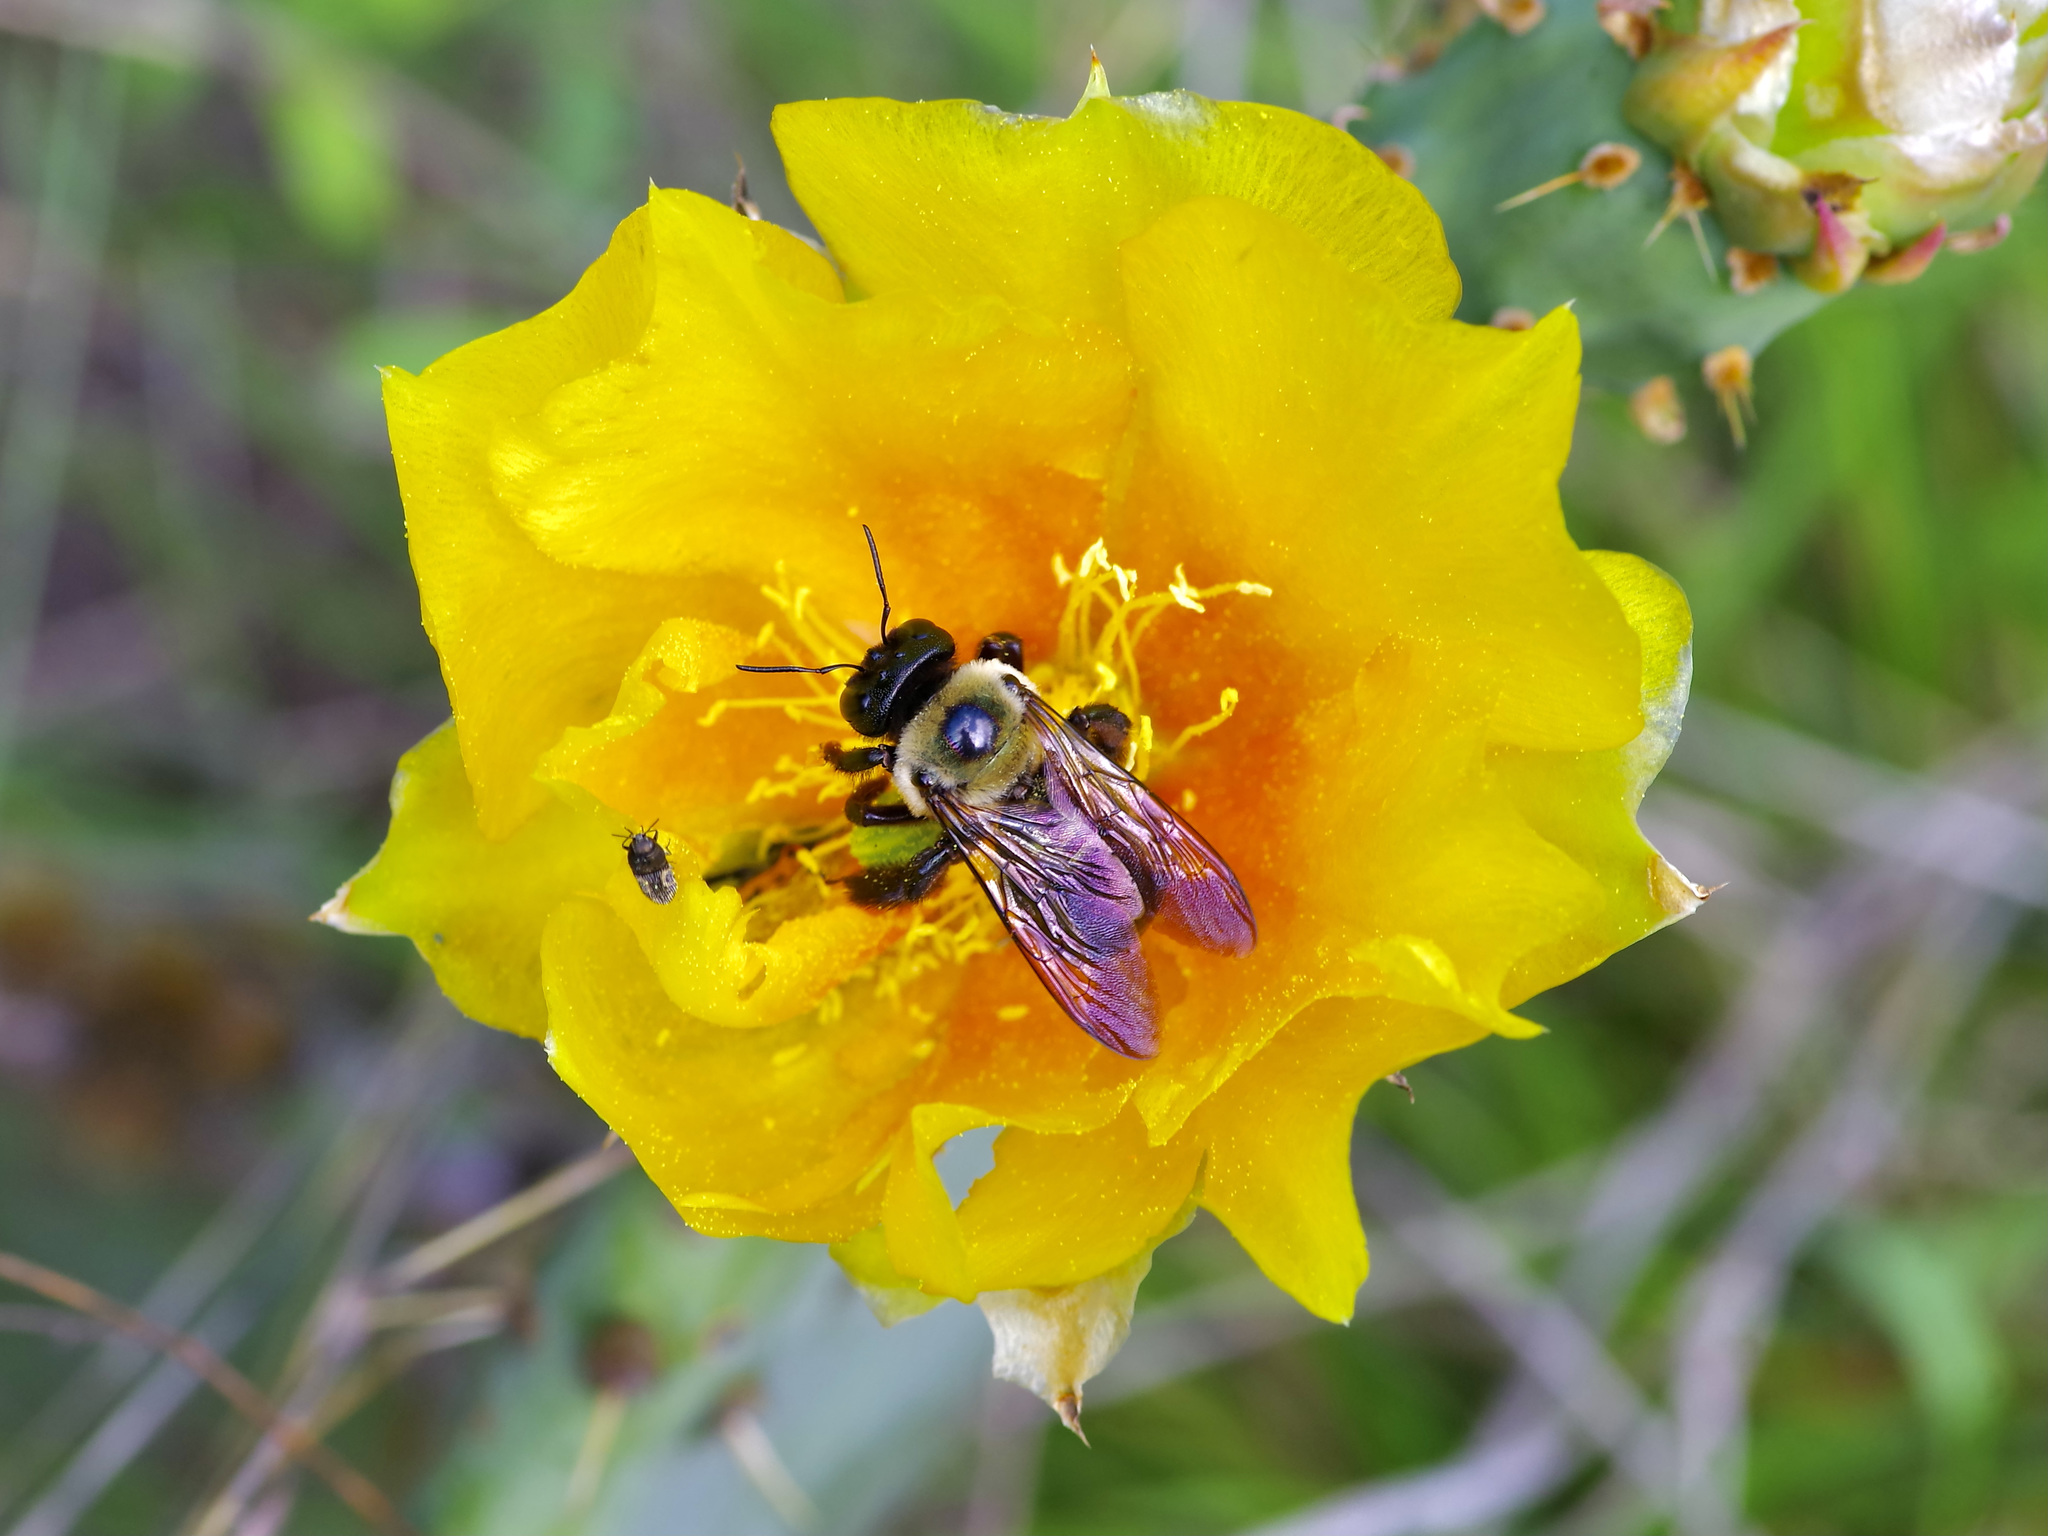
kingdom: Animalia
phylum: Arthropoda
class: Insecta
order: Hymenoptera
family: Apidae
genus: Xylocopa
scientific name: Xylocopa virginica
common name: Carpenter bee
